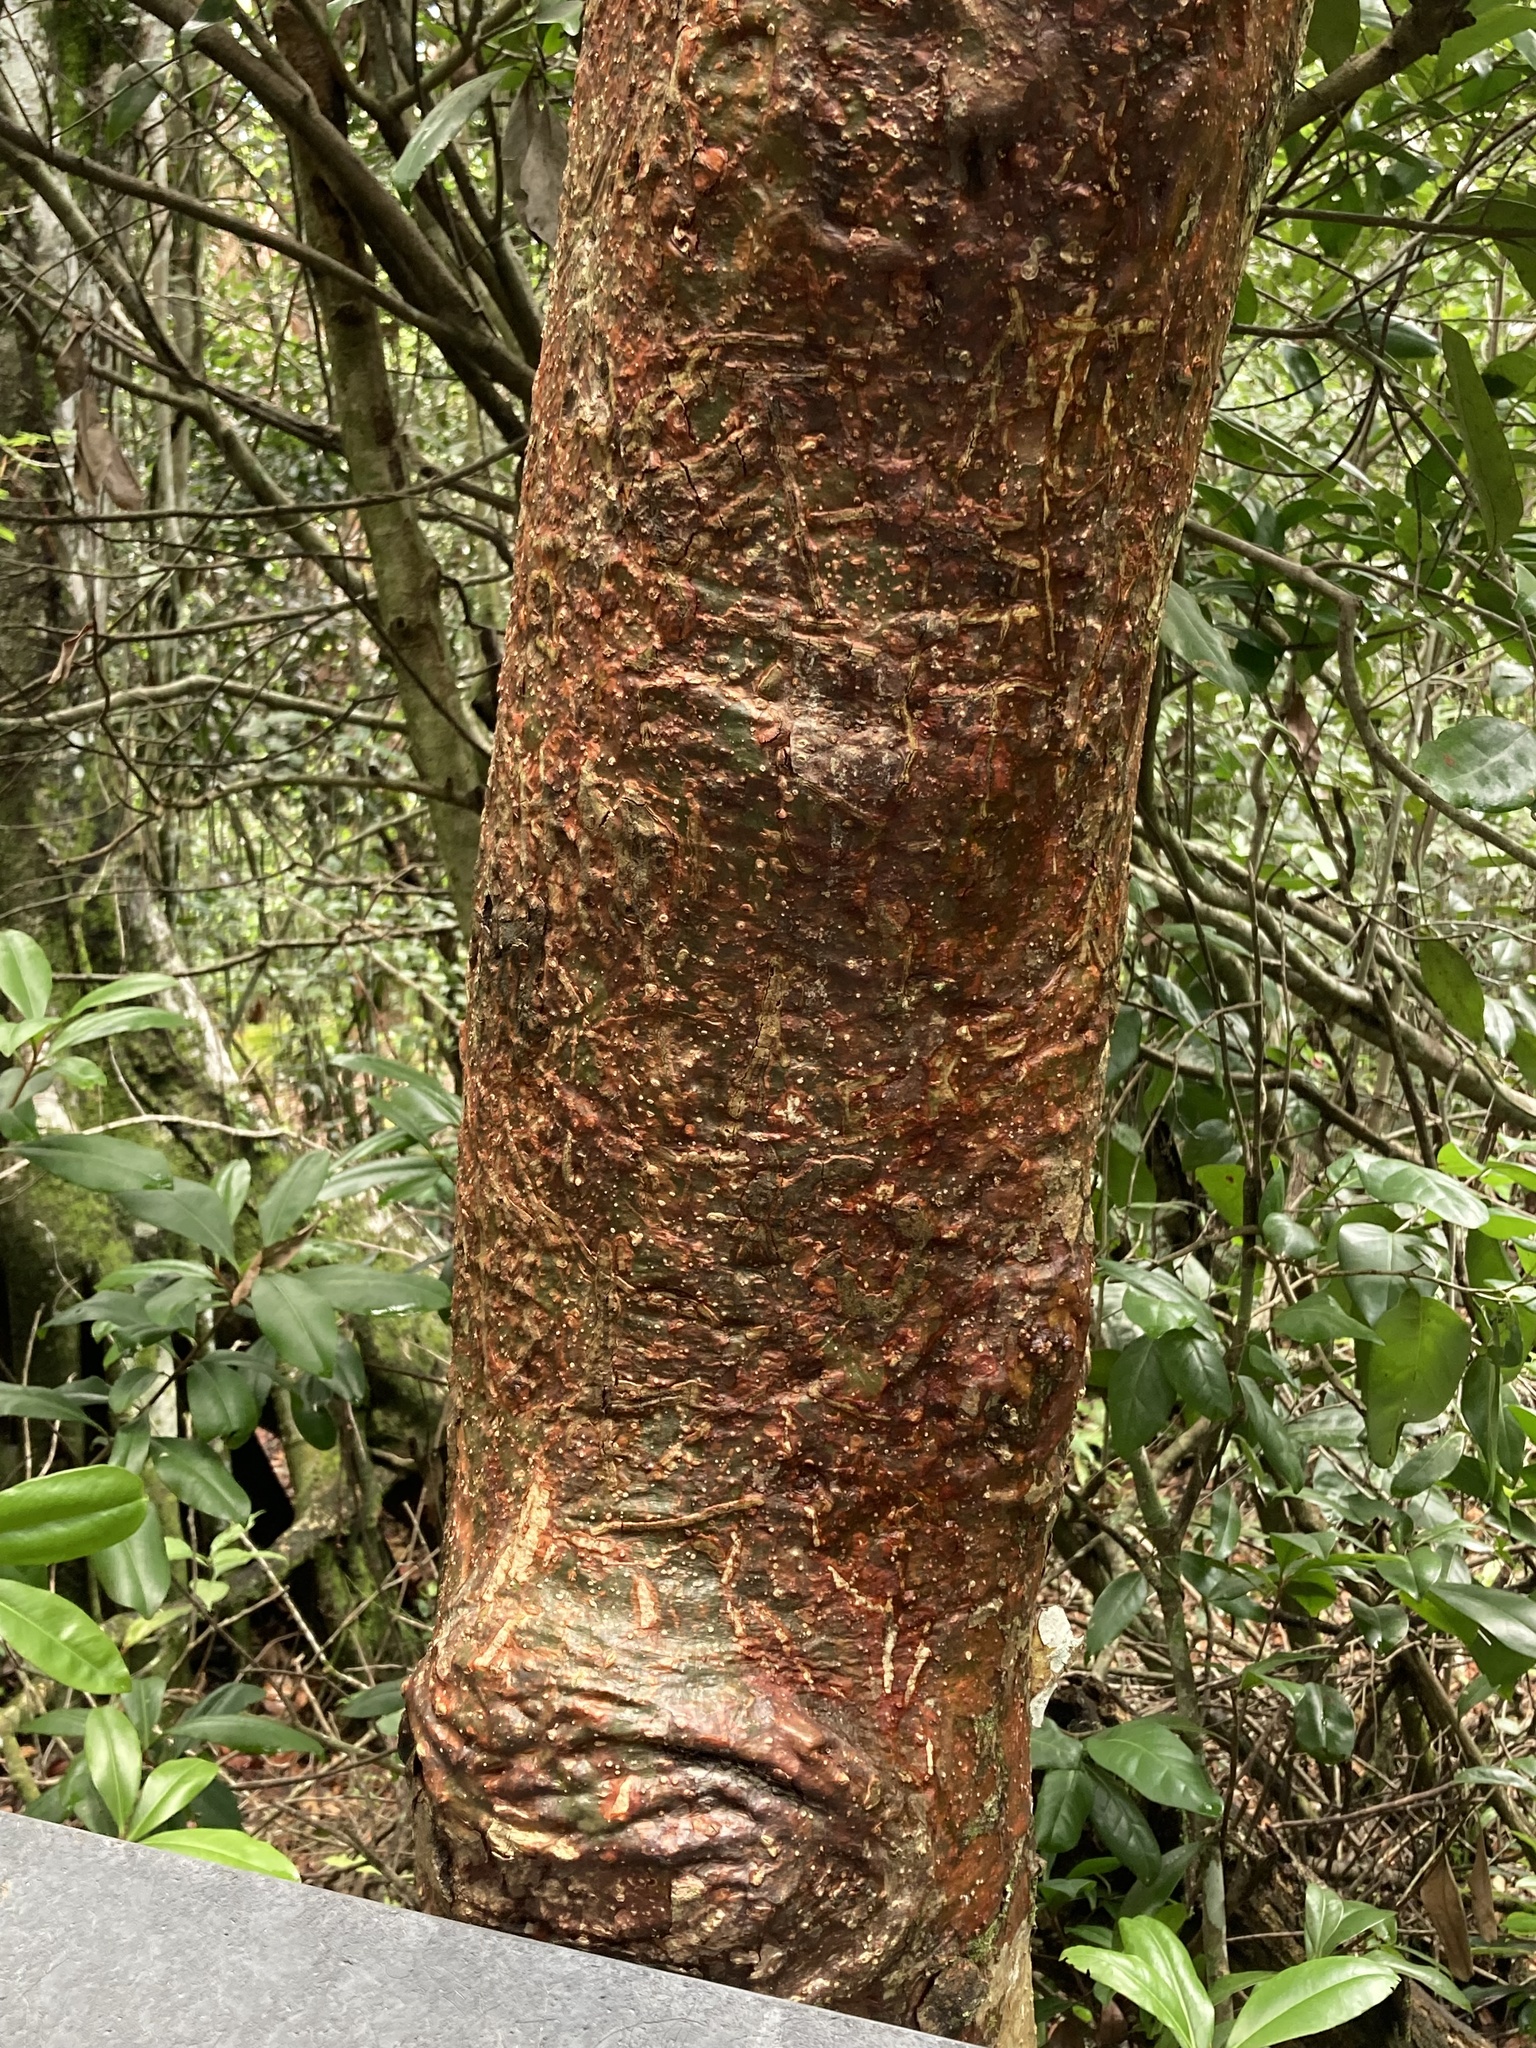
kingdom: Plantae
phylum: Tracheophyta
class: Magnoliopsida
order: Sapindales
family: Burseraceae
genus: Bursera
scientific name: Bursera simaruba
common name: Turpentine tree
